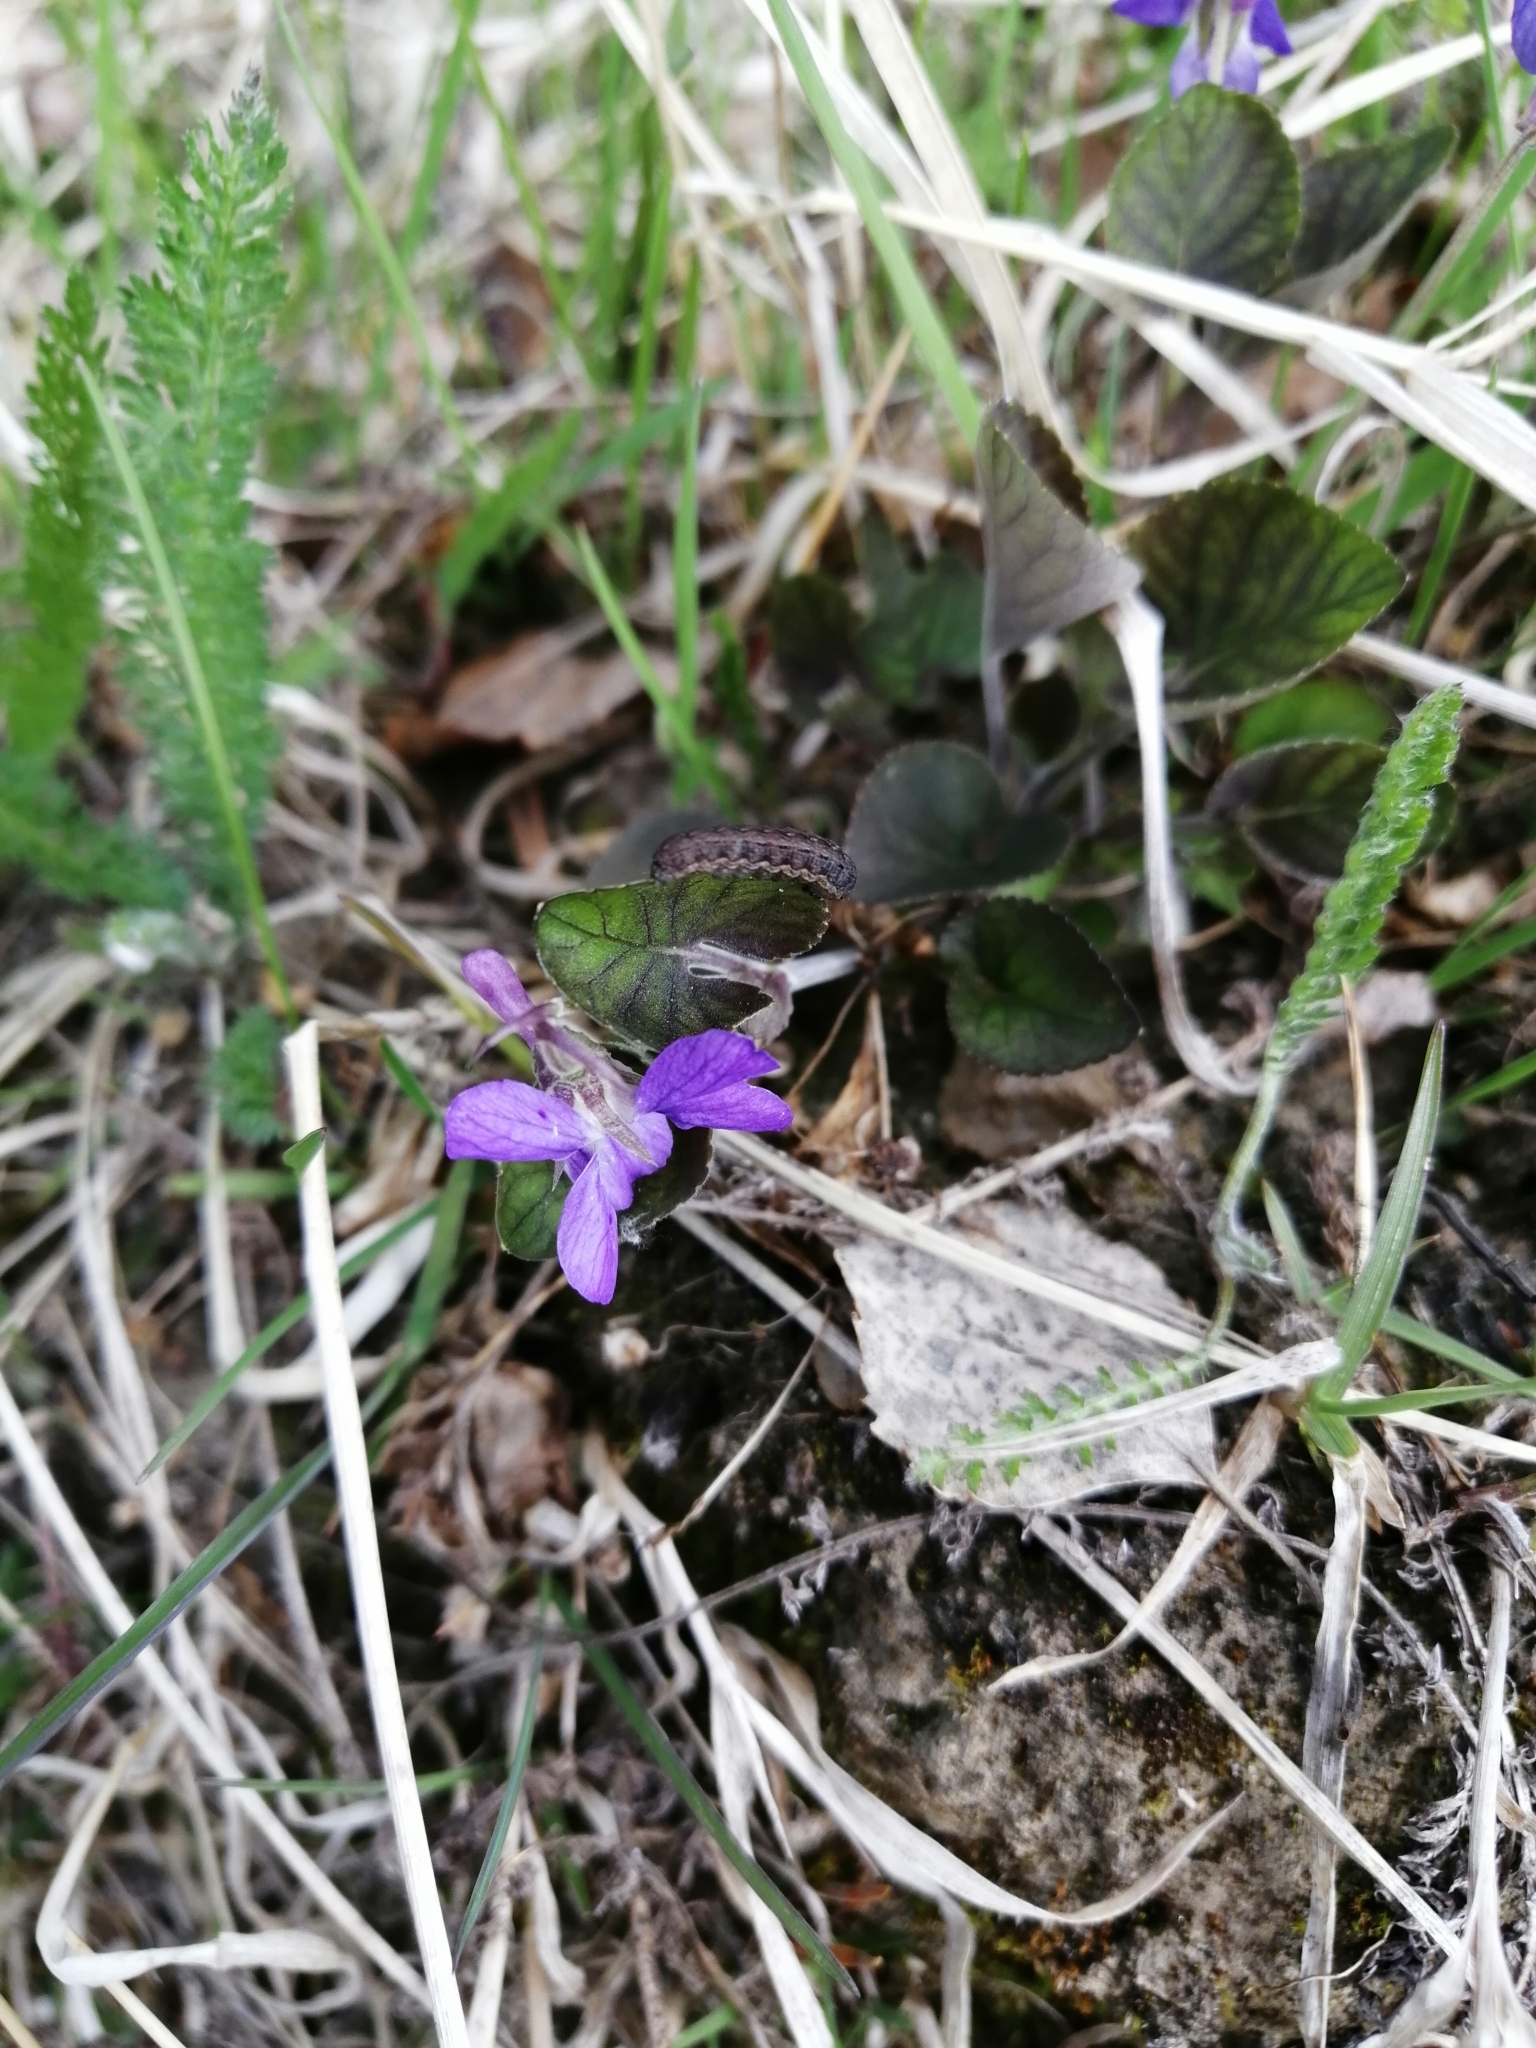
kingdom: Plantae
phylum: Tracheophyta
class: Magnoliopsida
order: Malpighiales
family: Violaceae
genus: Viola
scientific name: Viola rupestris
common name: Teesdale violet
